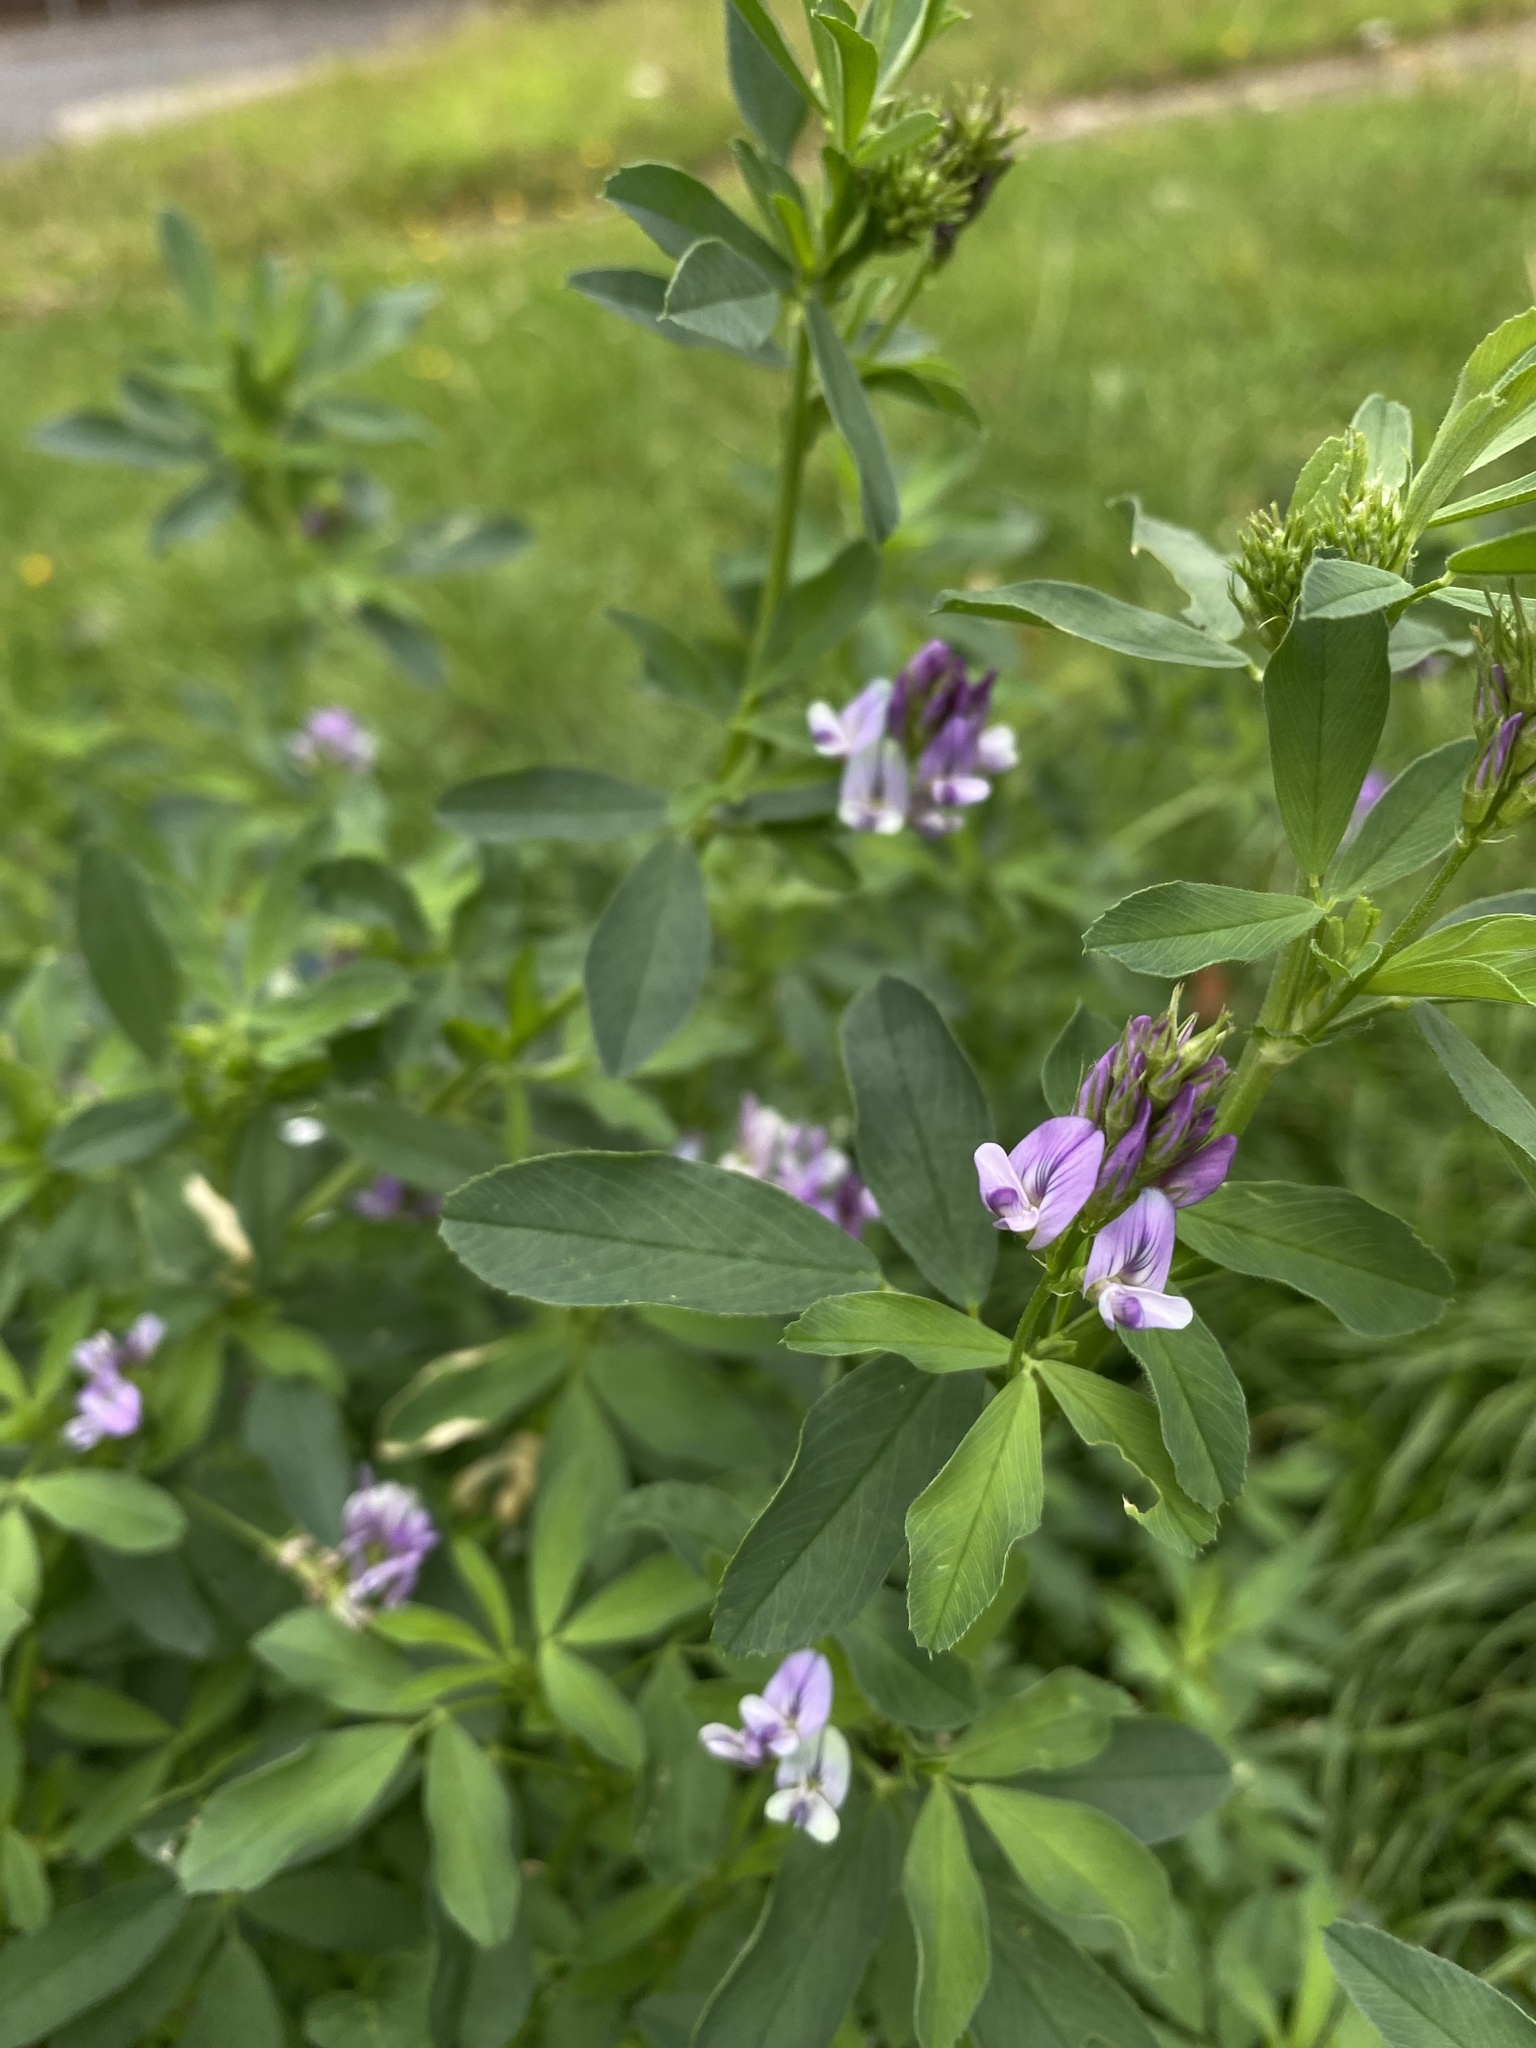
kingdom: Plantae
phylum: Tracheophyta
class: Magnoliopsida
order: Fabales
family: Fabaceae
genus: Medicago
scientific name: Medicago sativa
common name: Alfalfa
